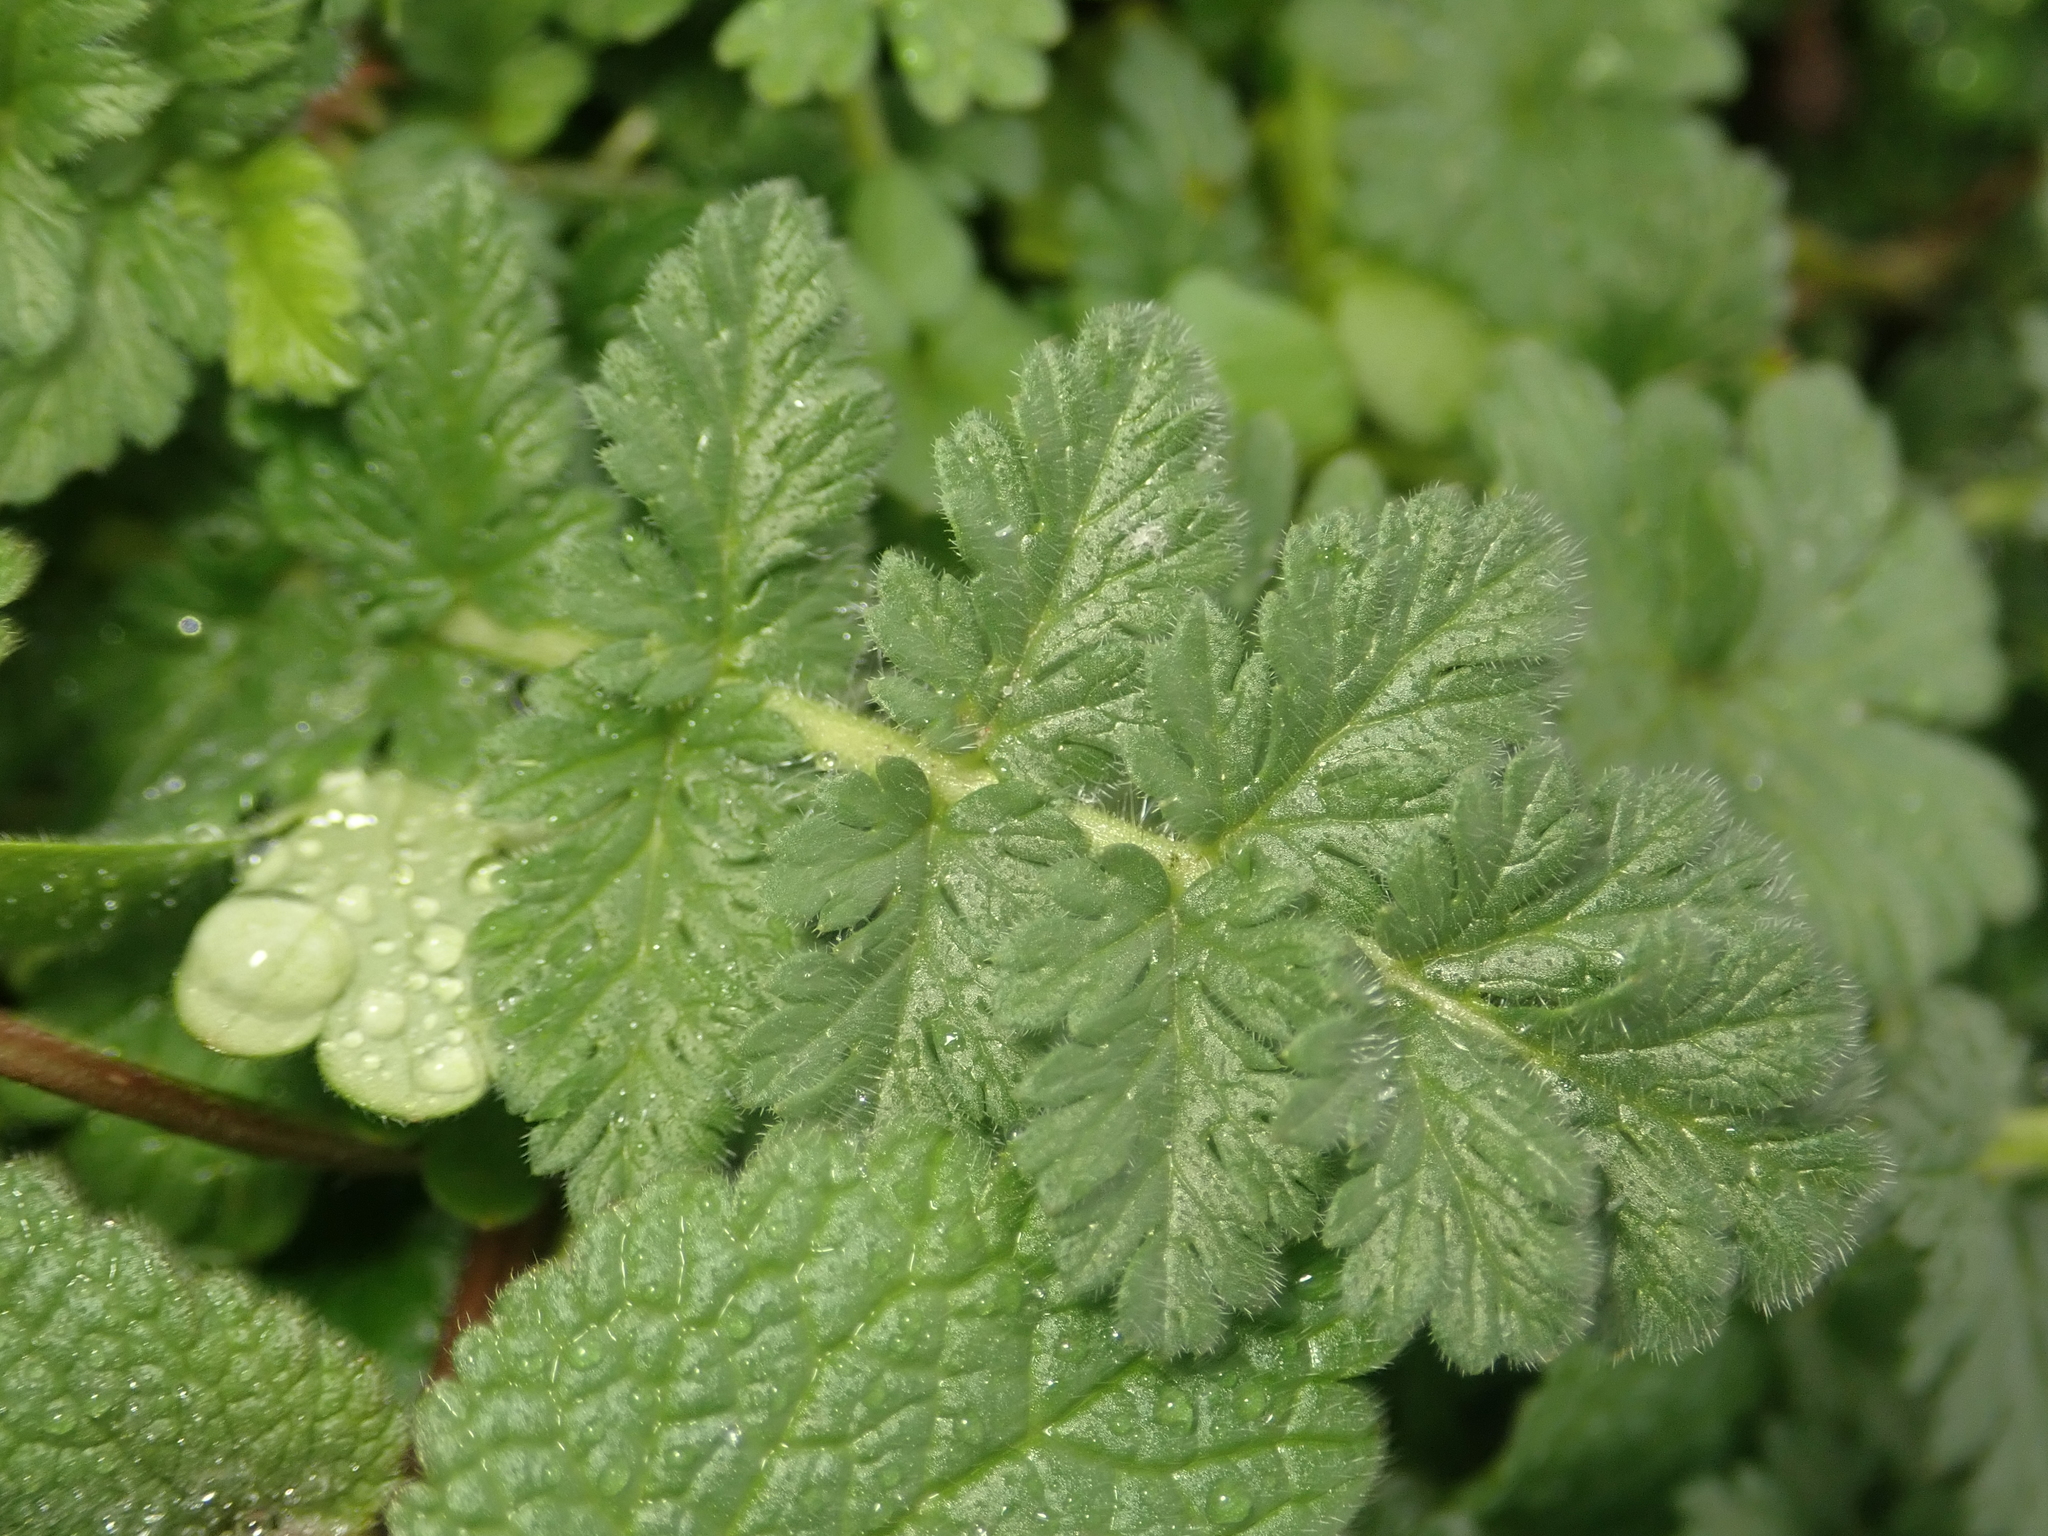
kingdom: Plantae
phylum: Tracheophyta
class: Magnoliopsida
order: Geraniales
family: Geraniaceae
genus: Erodium
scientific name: Erodium cicutarium
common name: Common stork's-bill
